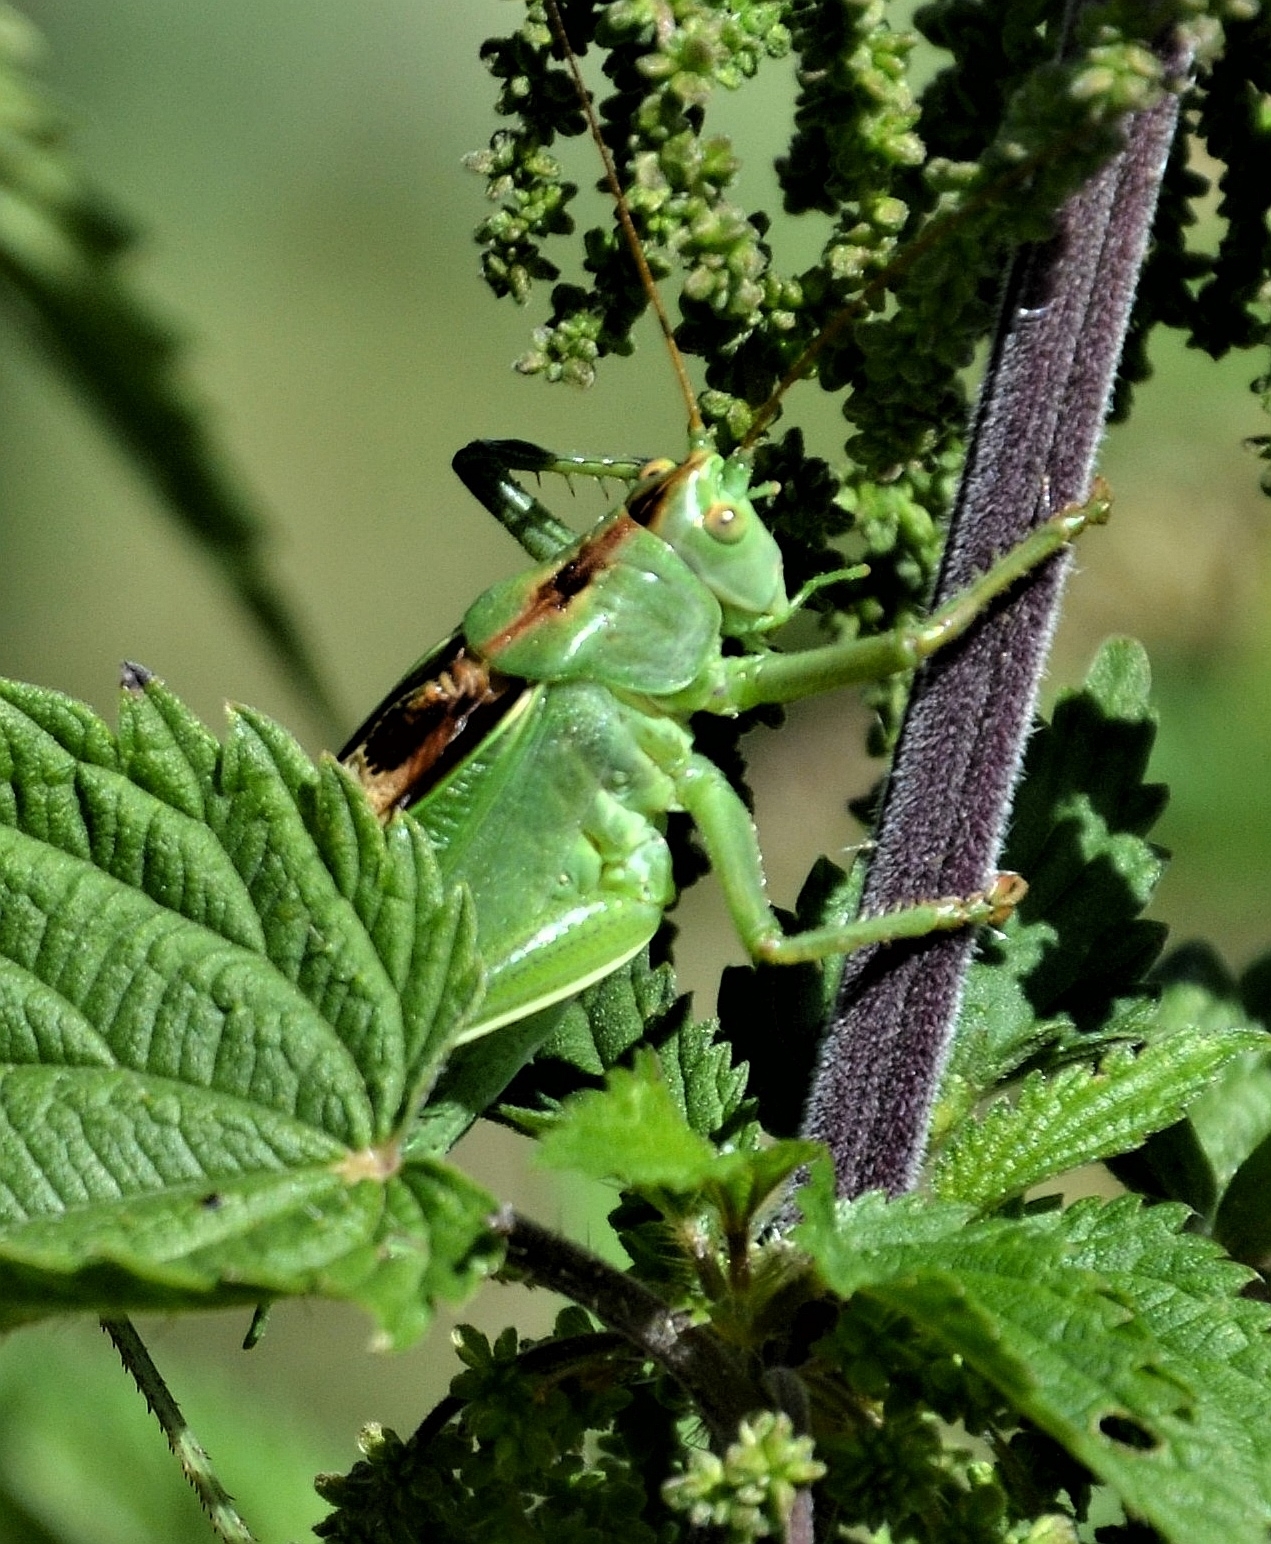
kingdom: Animalia
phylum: Arthropoda
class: Insecta
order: Orthoptera
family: Tettigoniidae
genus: Tettigonia
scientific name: Tettigonia cantans
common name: Upland green bush-cricket
